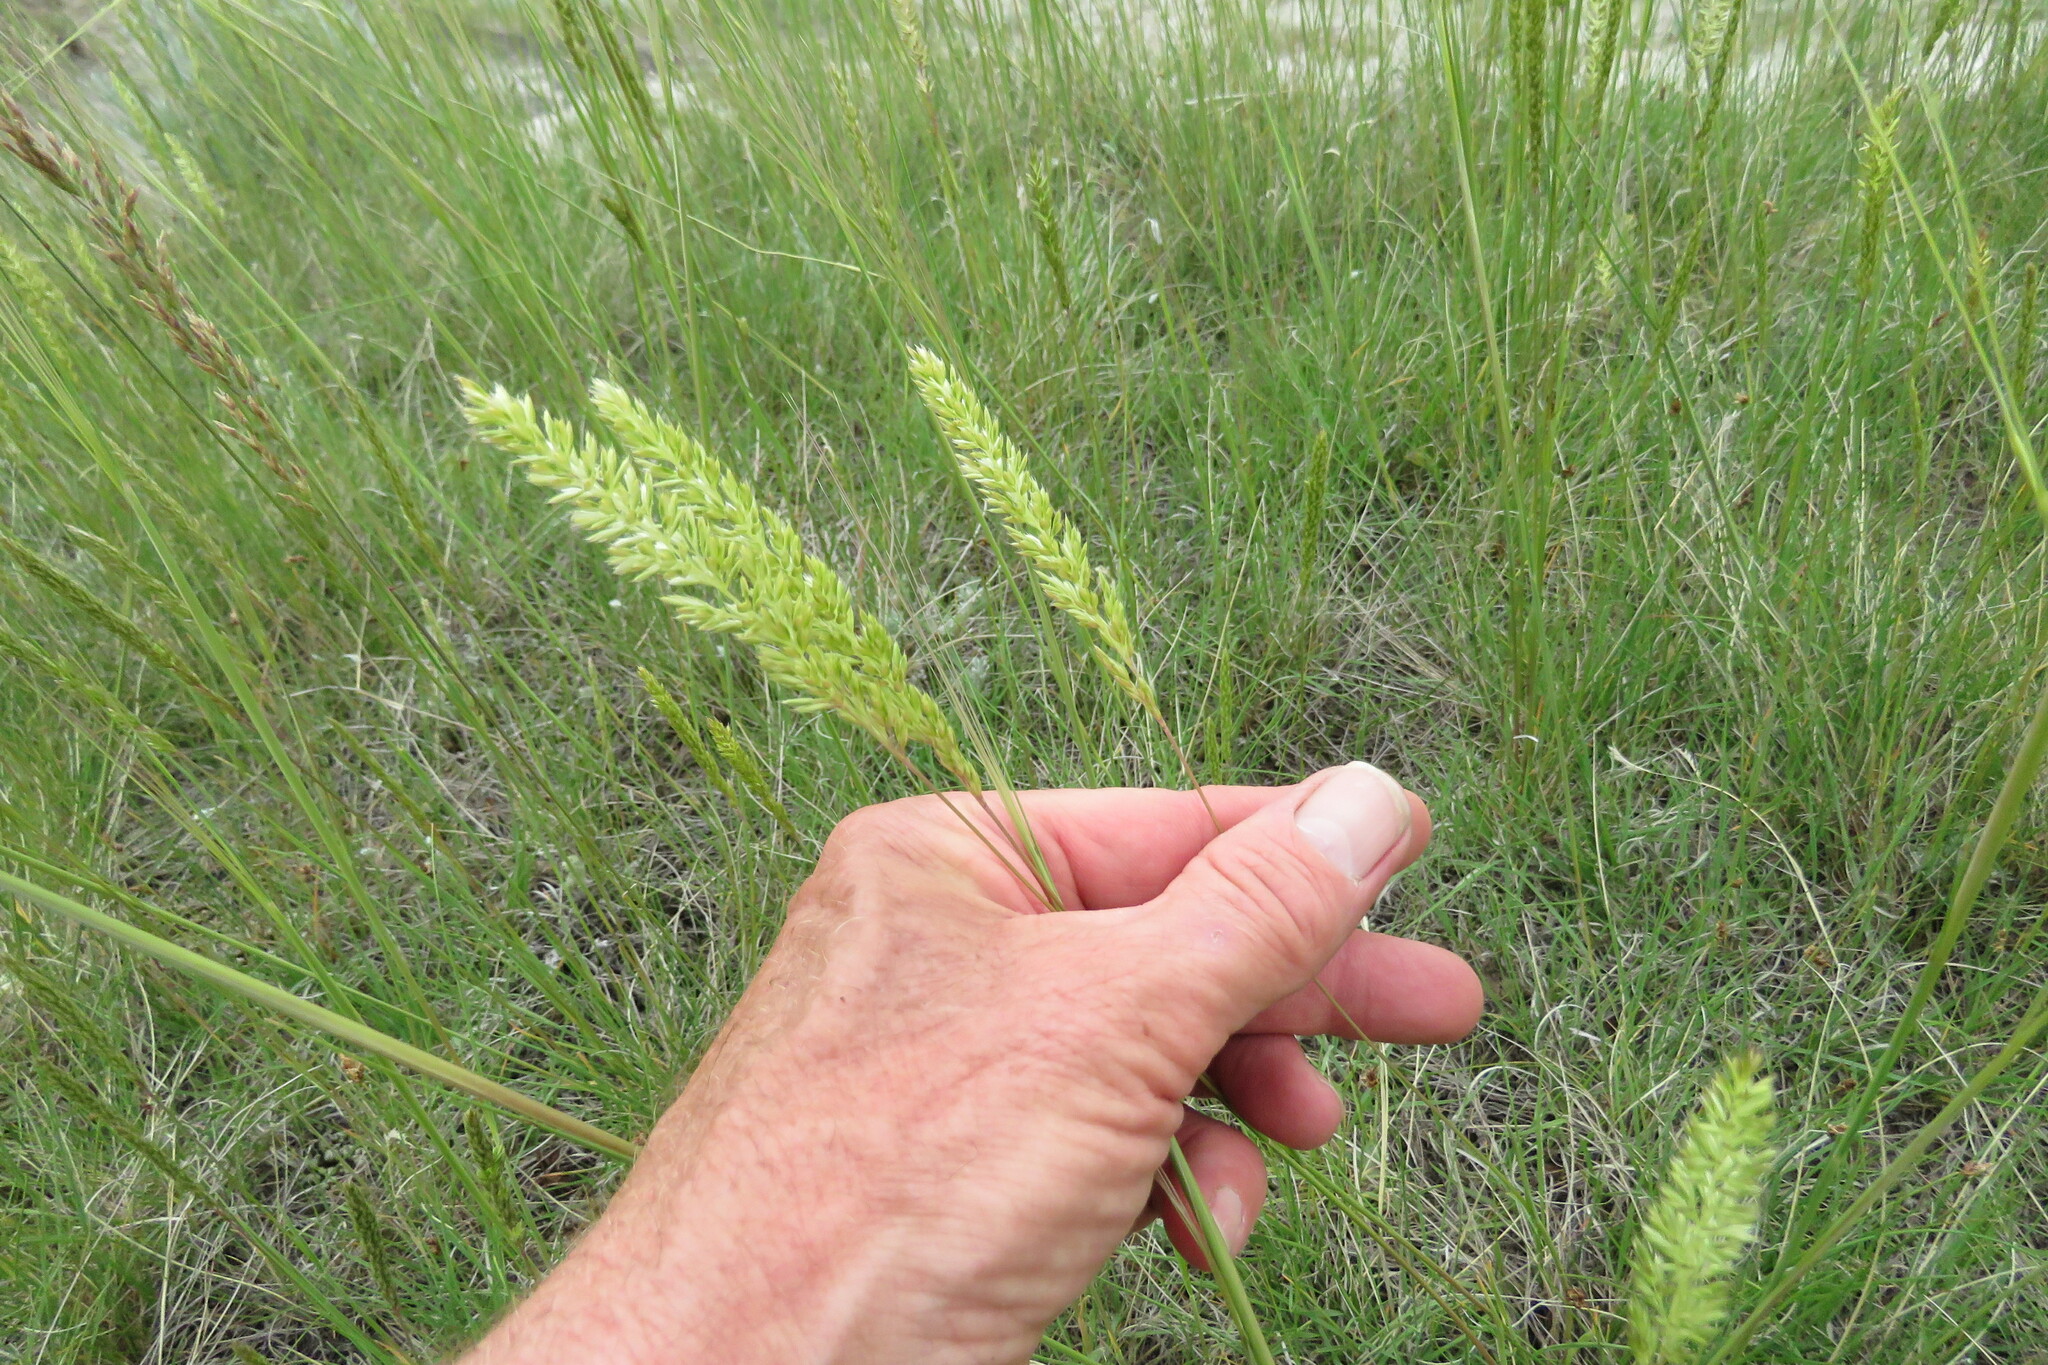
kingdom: Plantae
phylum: Tracheophyta
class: Liliopsida
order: Poales
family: Poaceae
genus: Koeleria
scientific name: Koeleria macrantha
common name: Crested hair-grass
